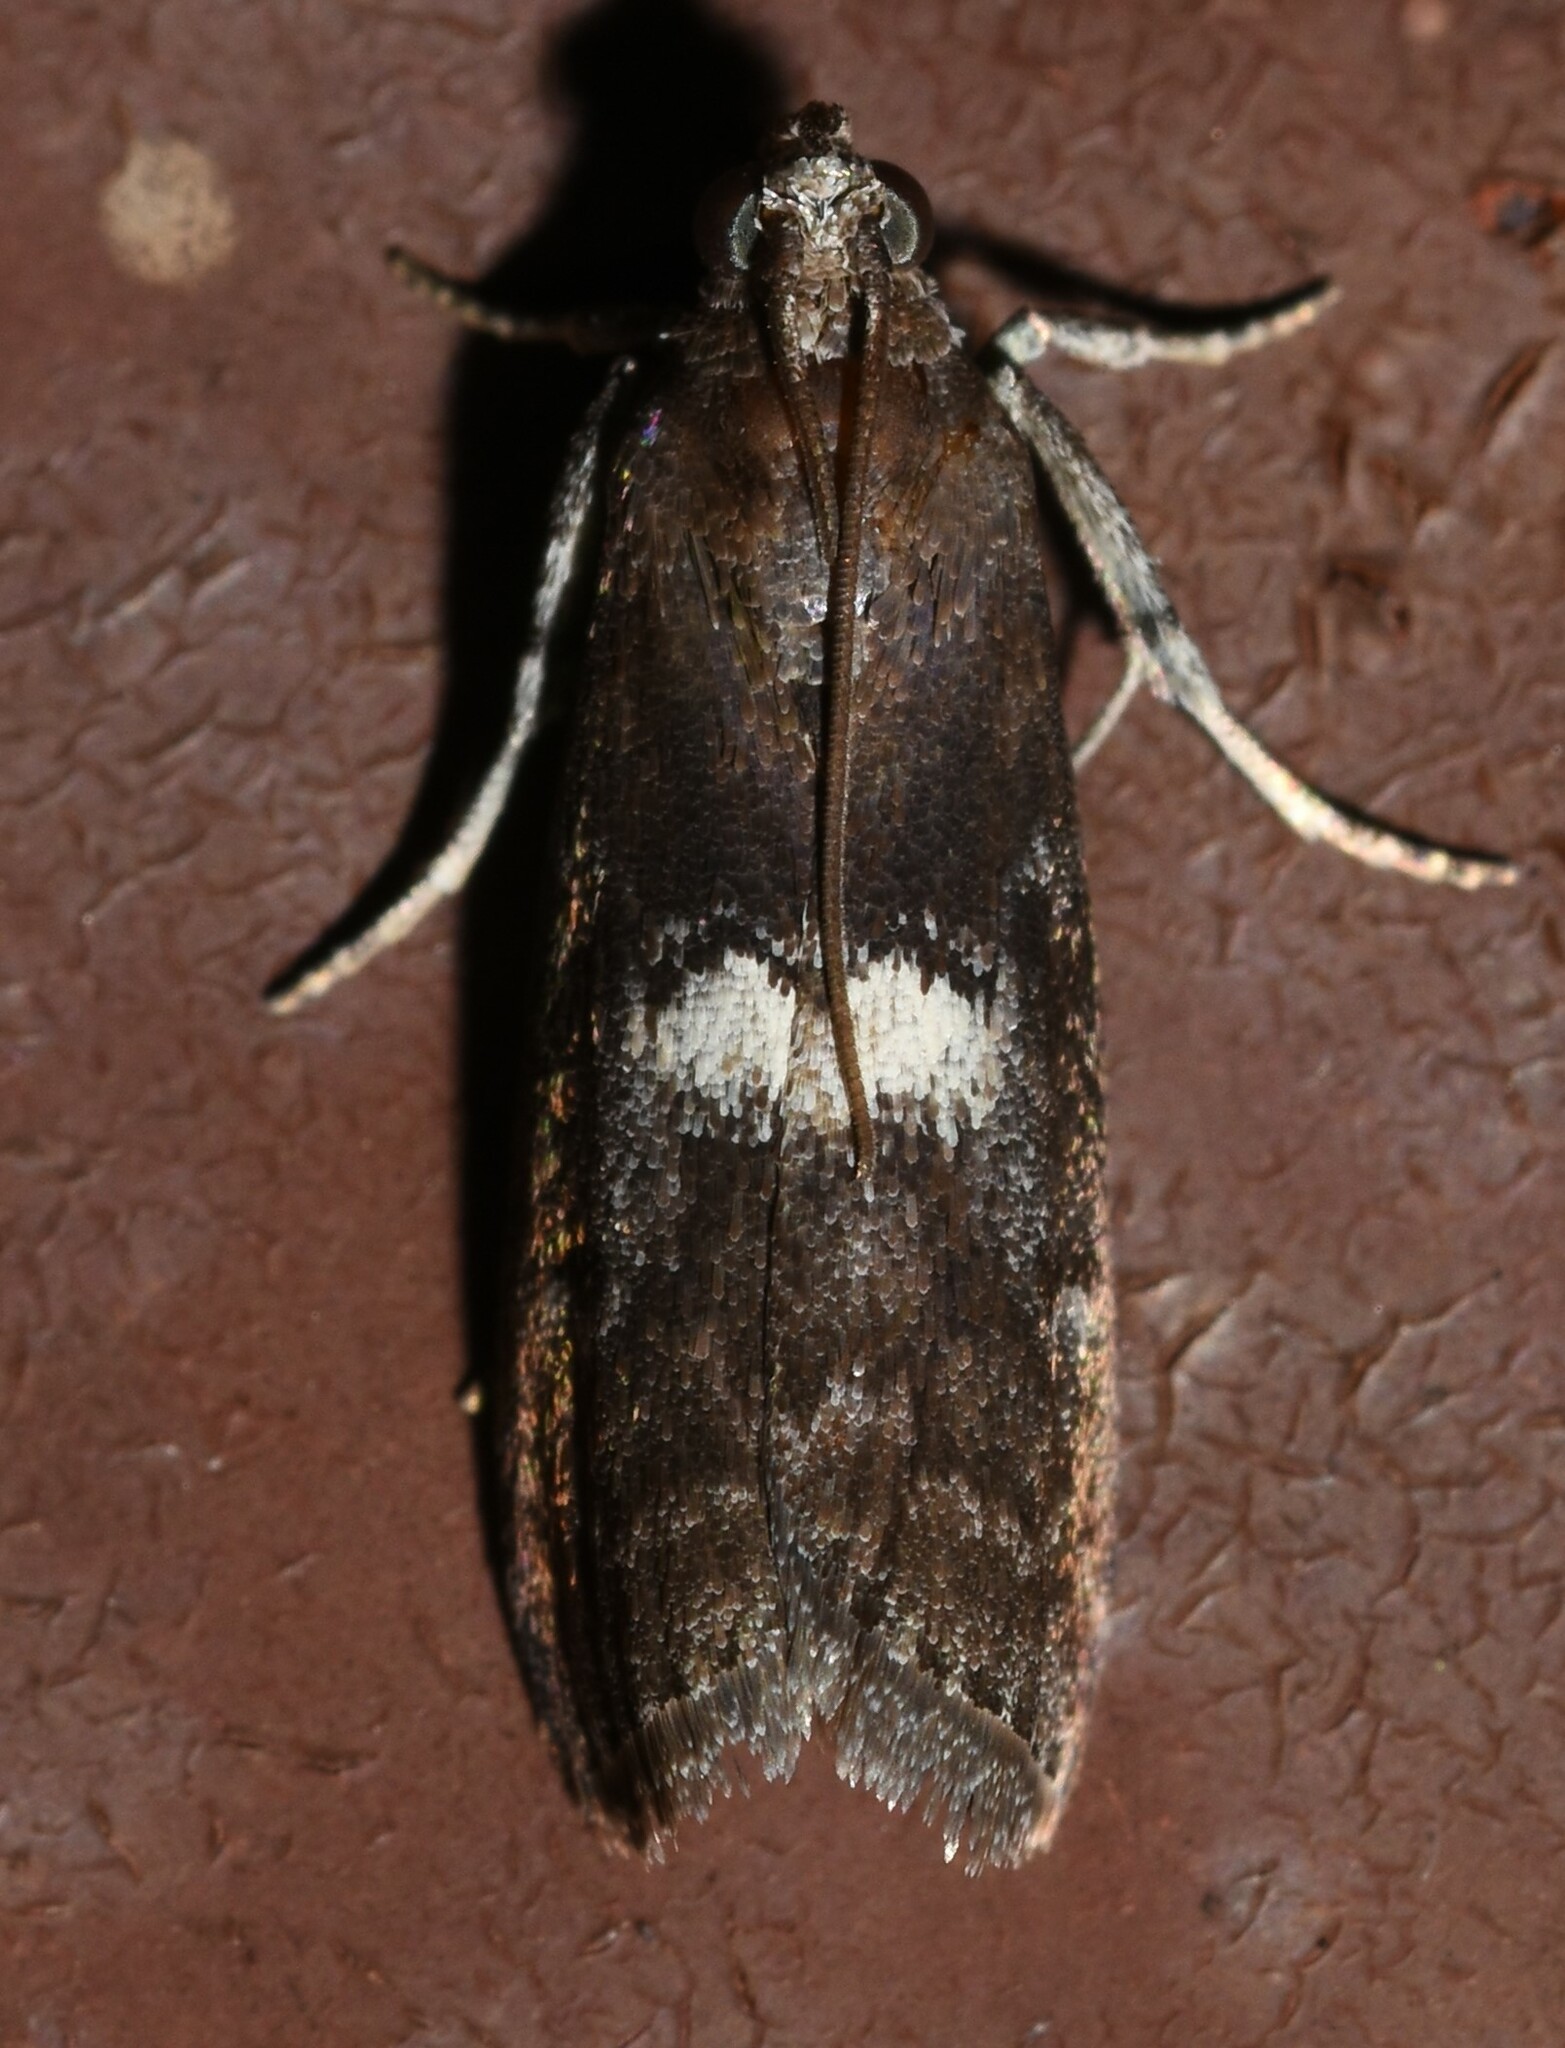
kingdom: Animalia
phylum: Arthropoda
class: Insecta
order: Lepidoptera
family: Pyralidae
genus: Salebriaria
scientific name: Salebriaria engeli
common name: Engel's salebriaria moth
